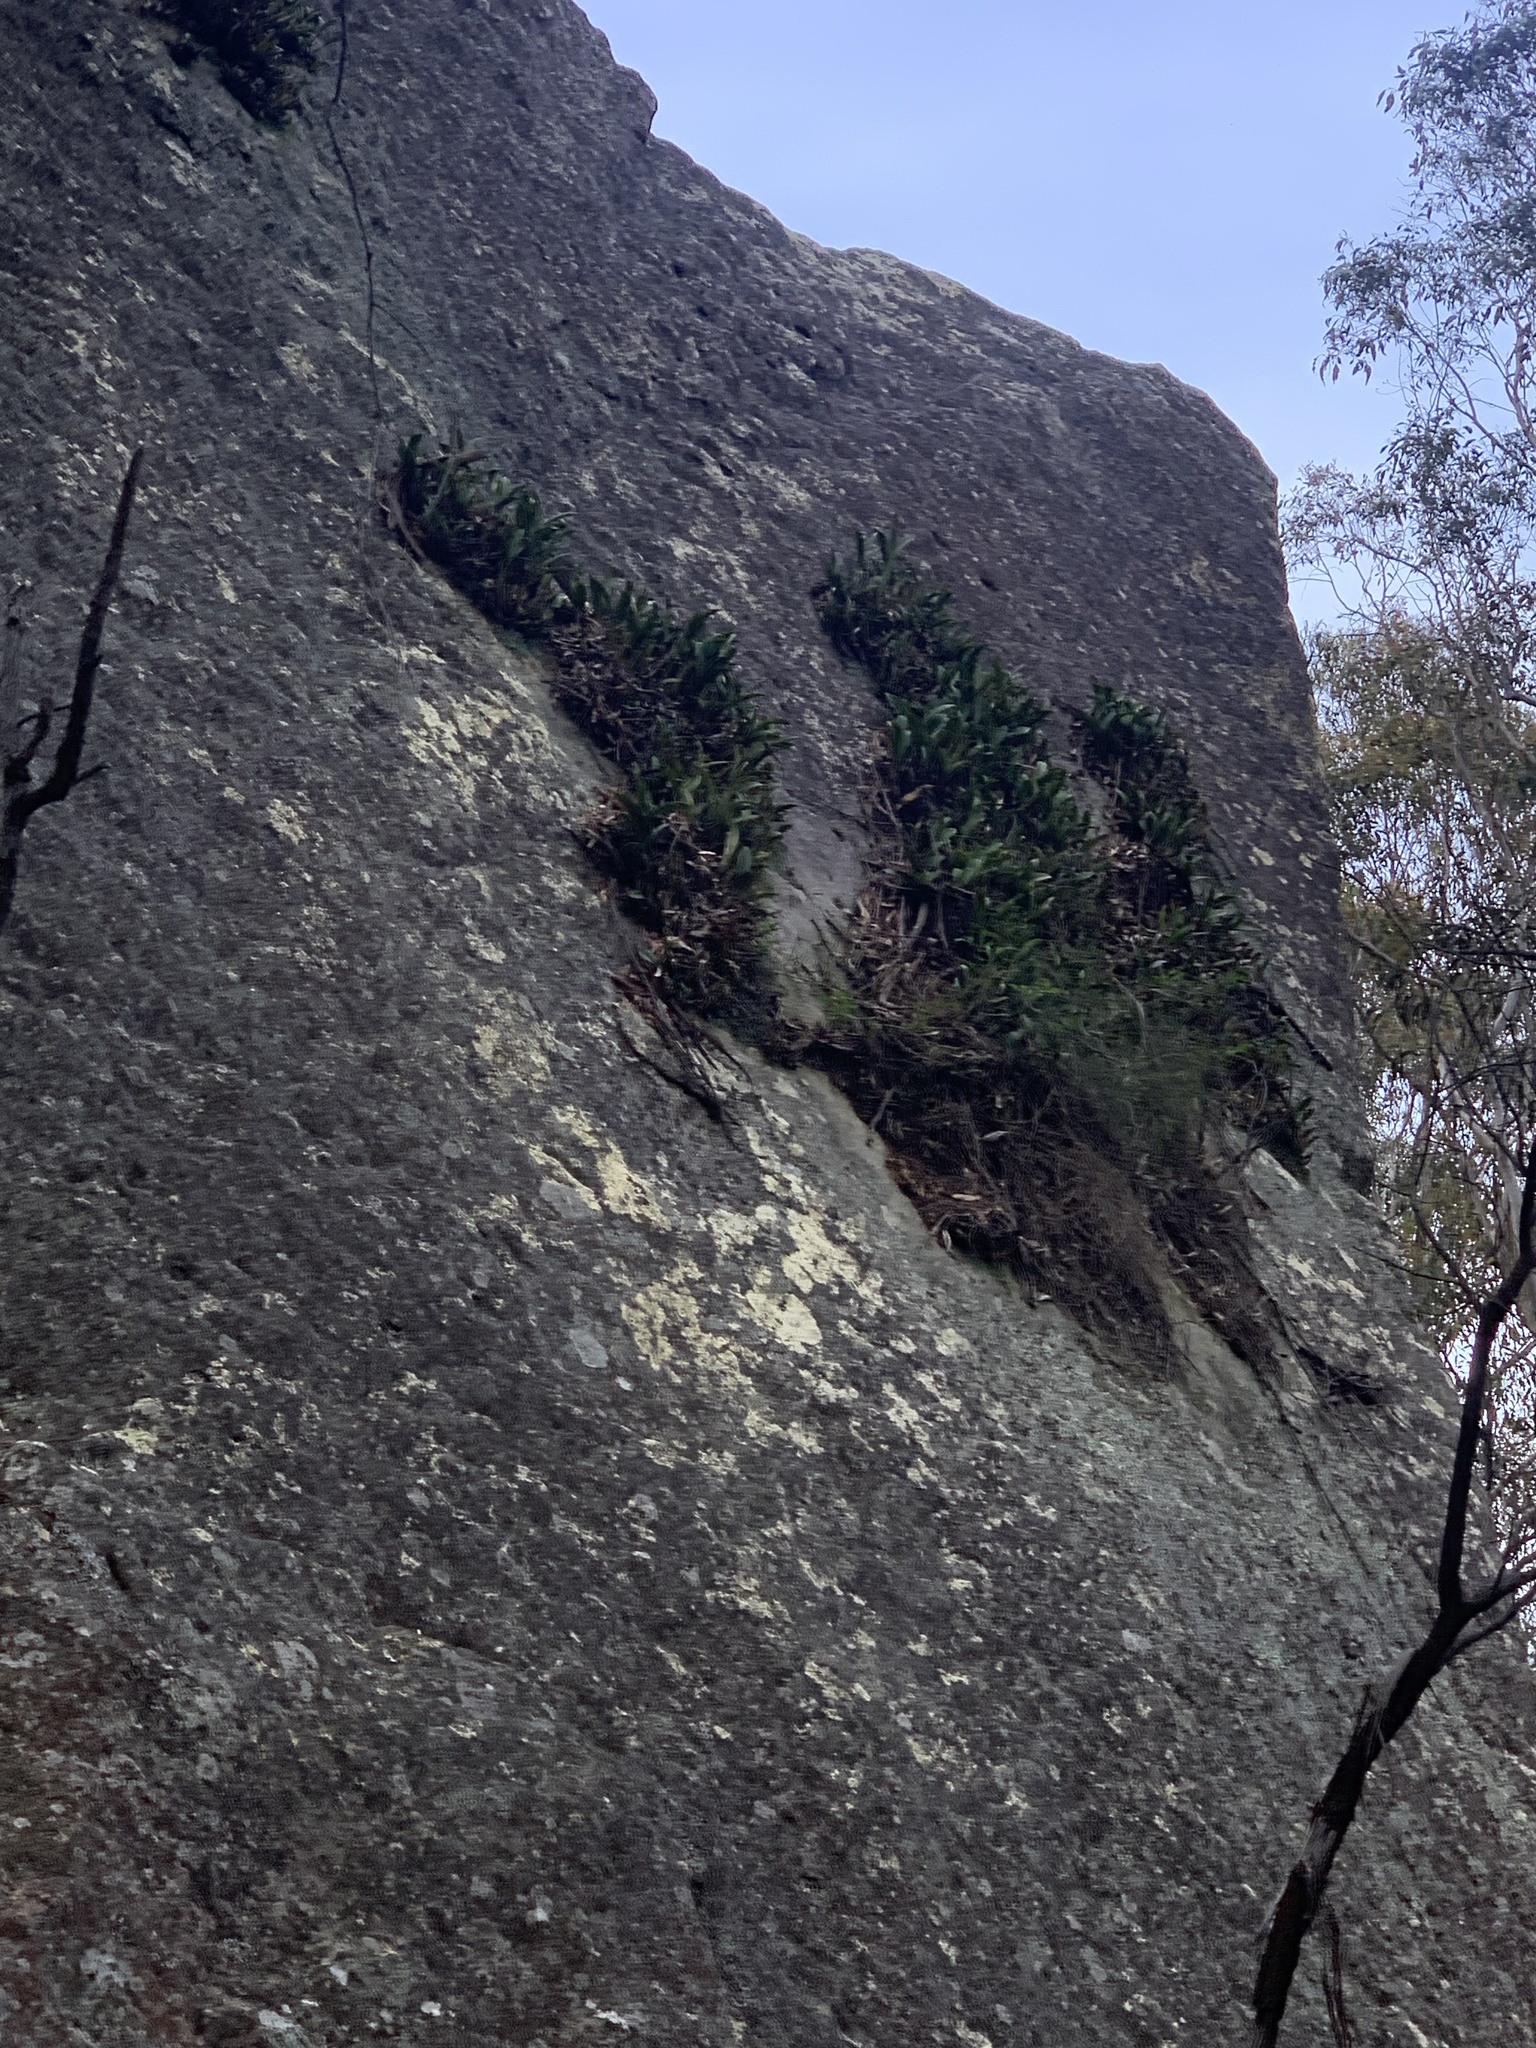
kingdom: Plantae
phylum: Tracheophyta
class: Liliopsida
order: Asparagales
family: Orchidaceae
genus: Dendrobium
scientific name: Dendrobium speciosum
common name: Rock-lily
